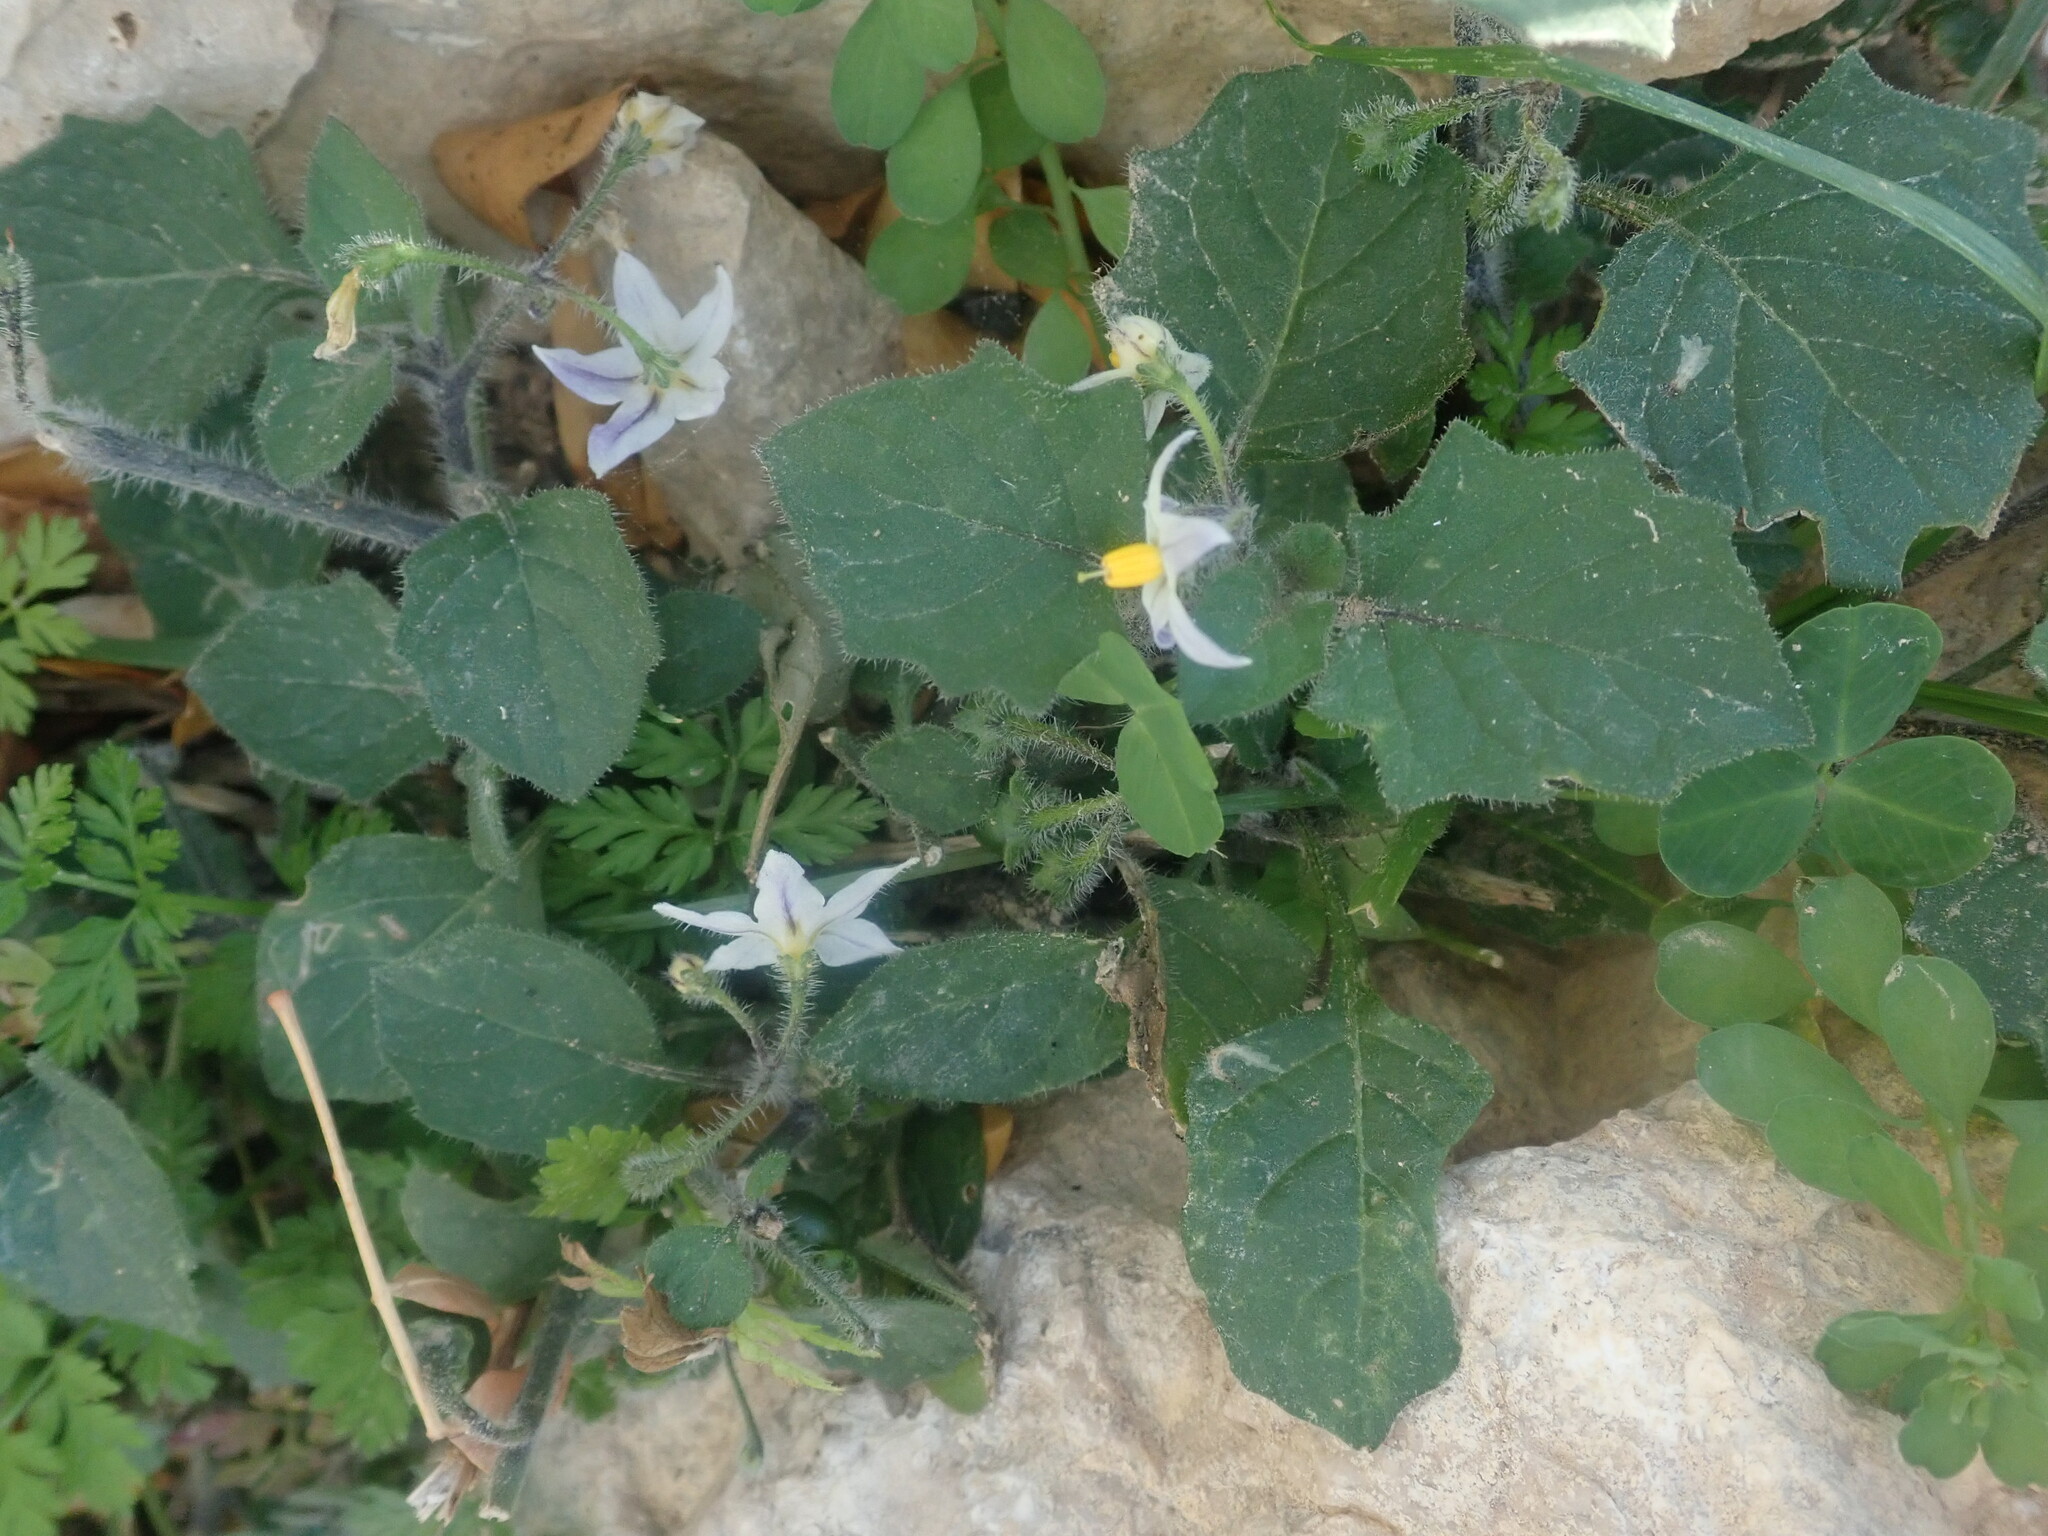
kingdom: Plantae
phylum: Tracheophyta
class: Magnoliopsida
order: Solanales
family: Solanaceae
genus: Solanum
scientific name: Solanum villosum
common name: Red nightshade
